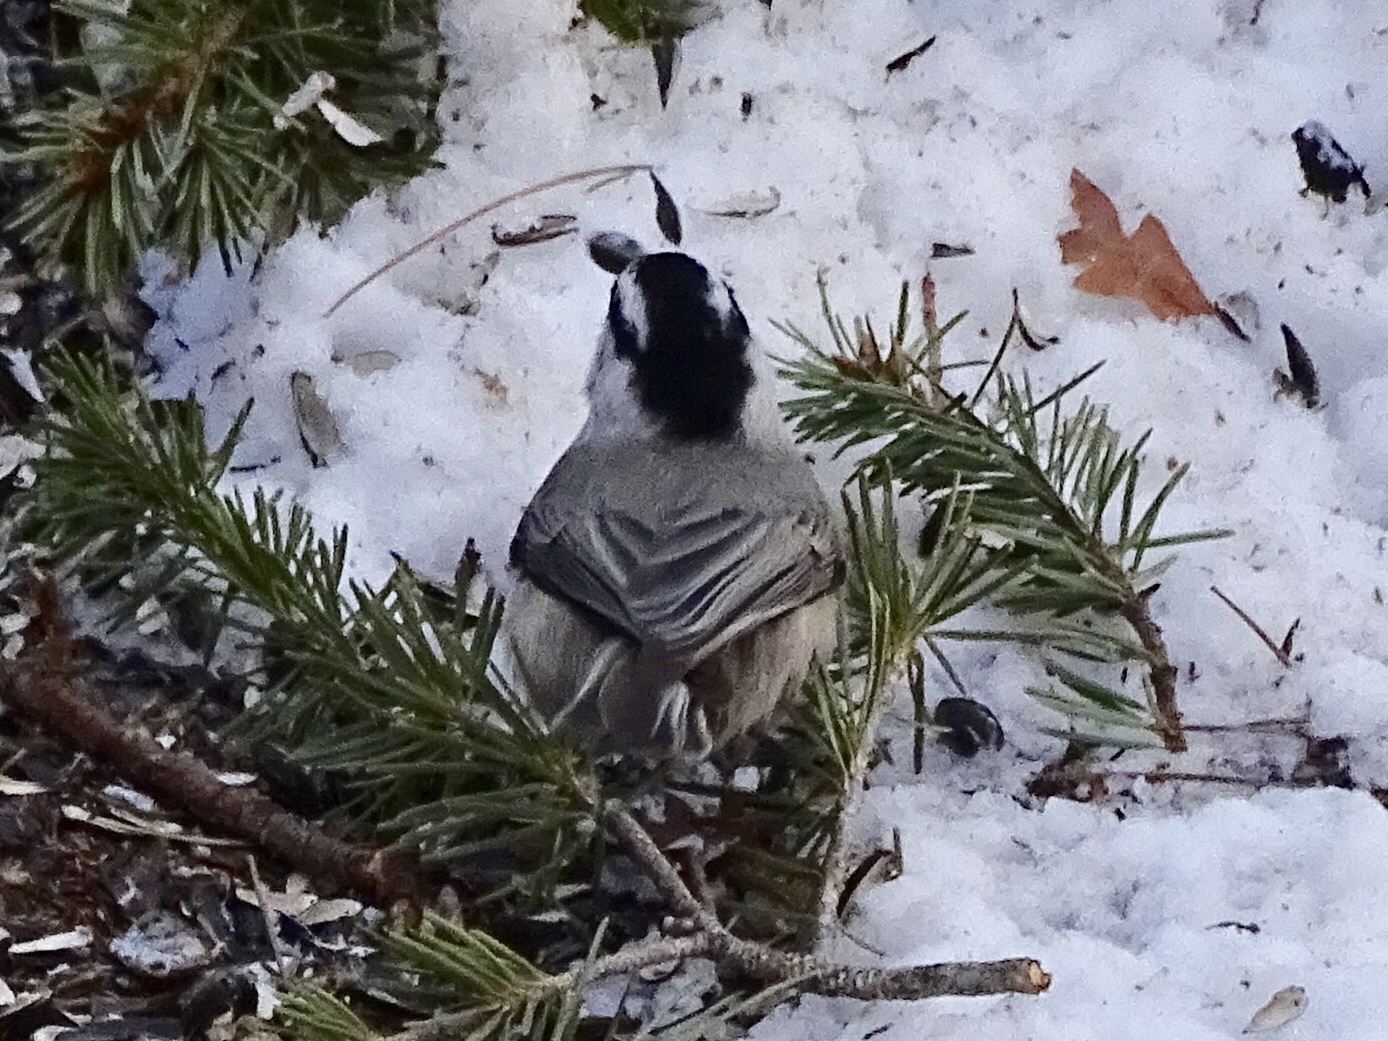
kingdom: Animalia
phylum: Chordata
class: Aves
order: Passeriformes
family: Paridae
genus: Poecile
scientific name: Poecile gambeli
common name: Mountain chickadee
